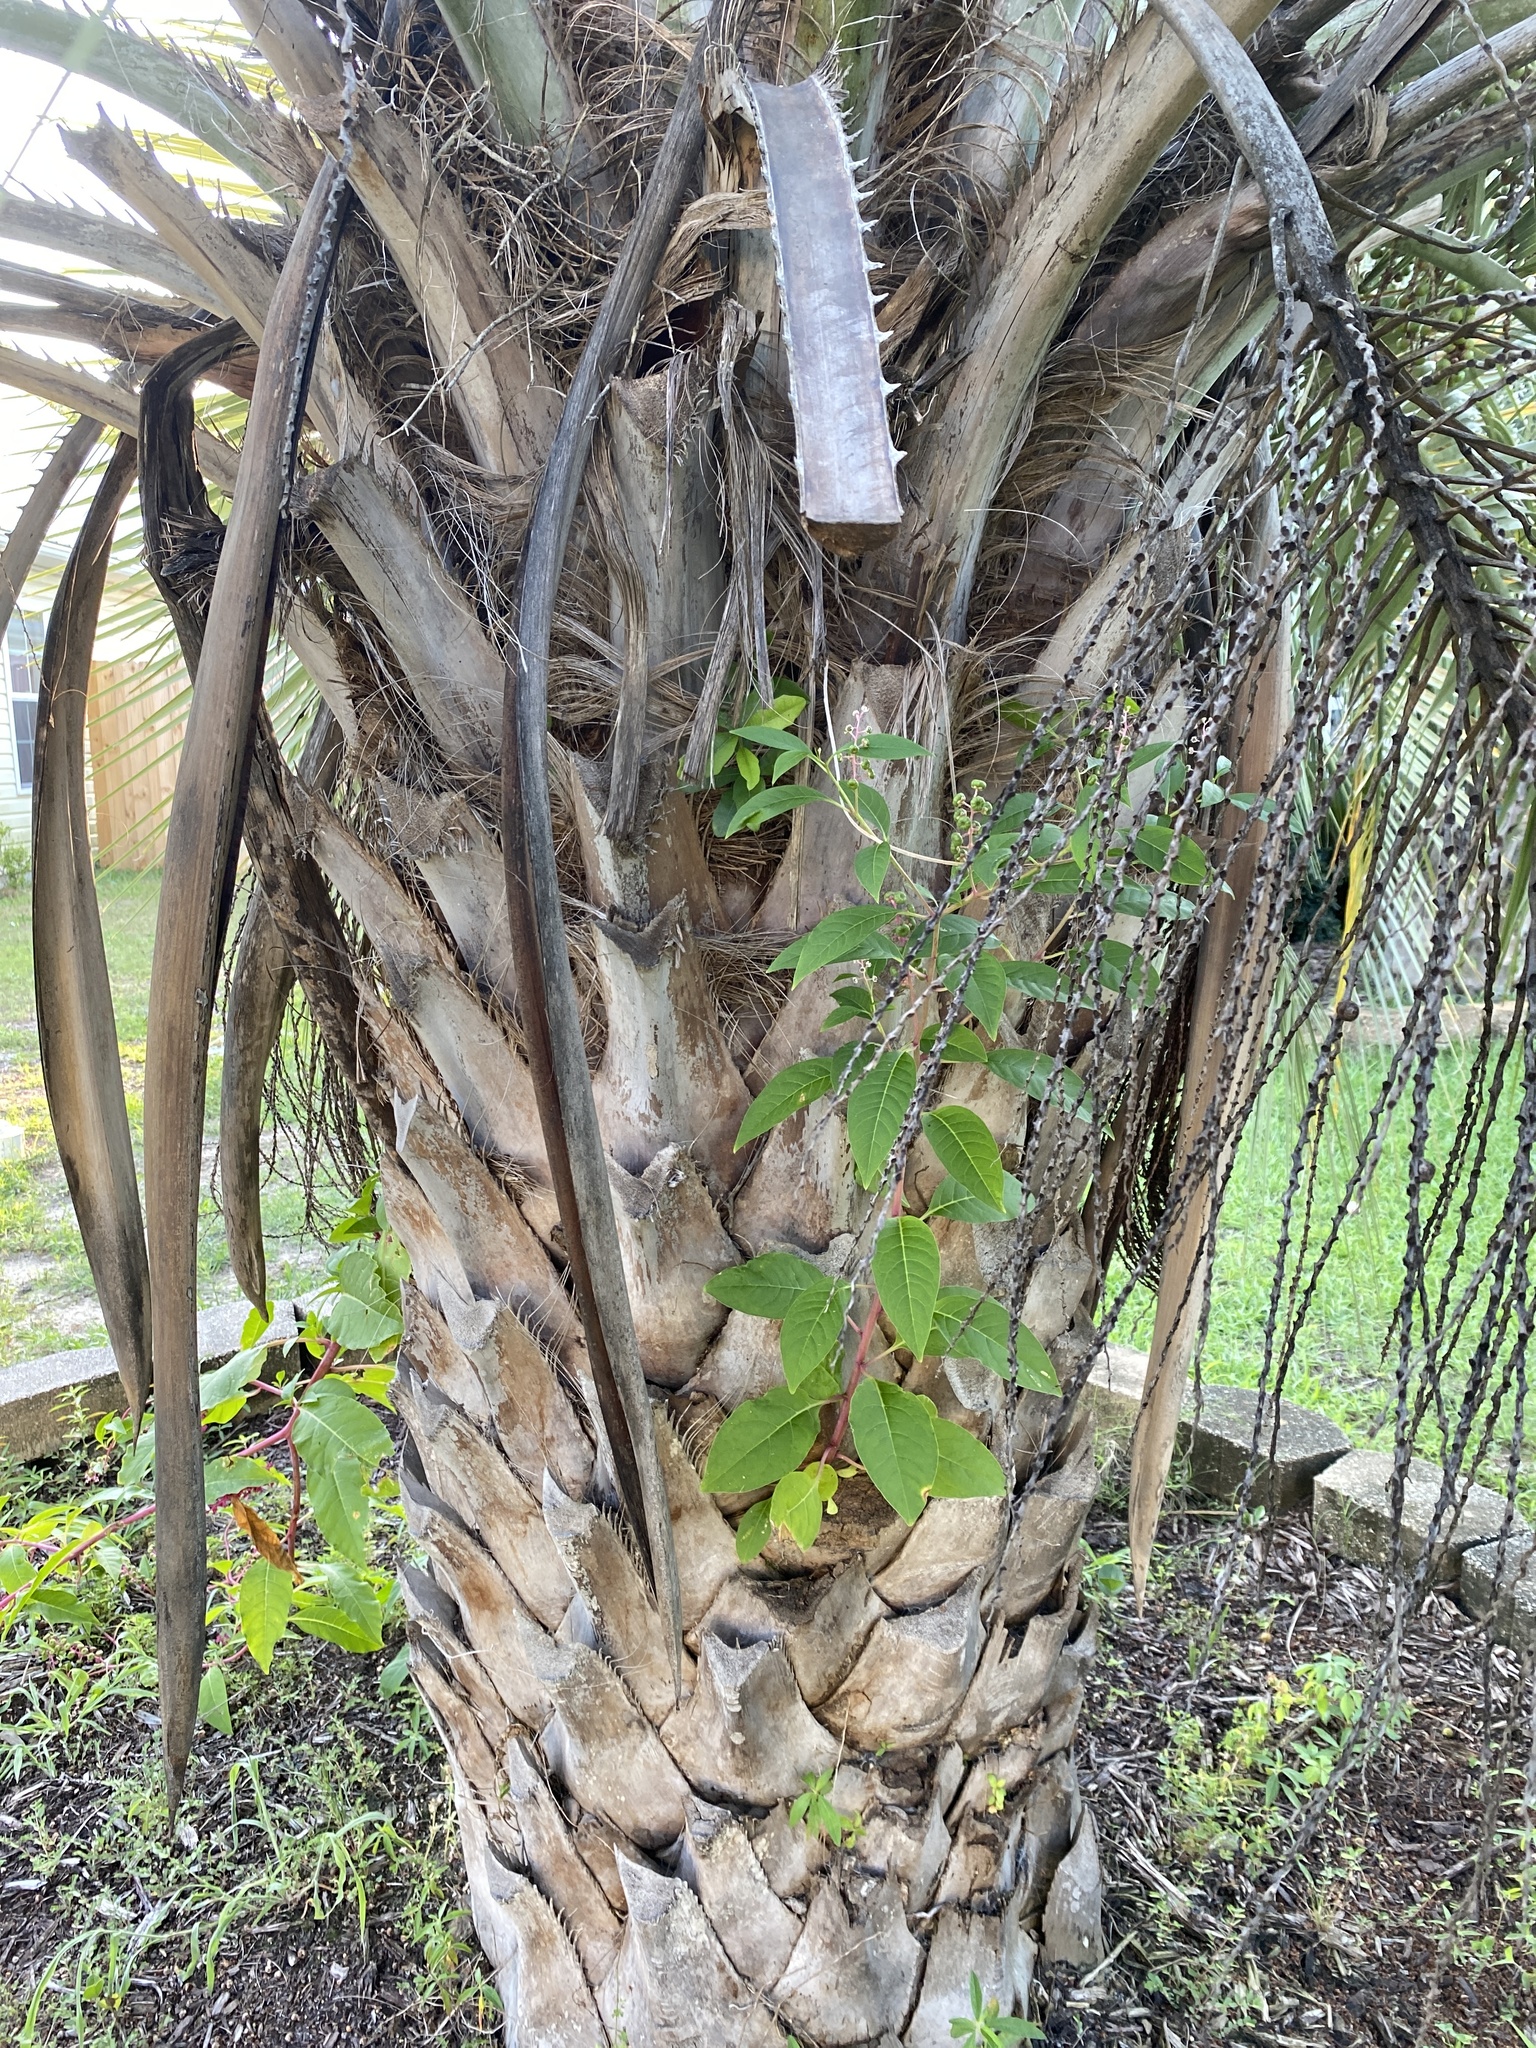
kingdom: Plantae
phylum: Tracheophyta
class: Magnoliopsida
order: Caryophyllales
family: Phytolaccaceae
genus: Phytolacca
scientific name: Phytolacca americana
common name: American pokeweed
